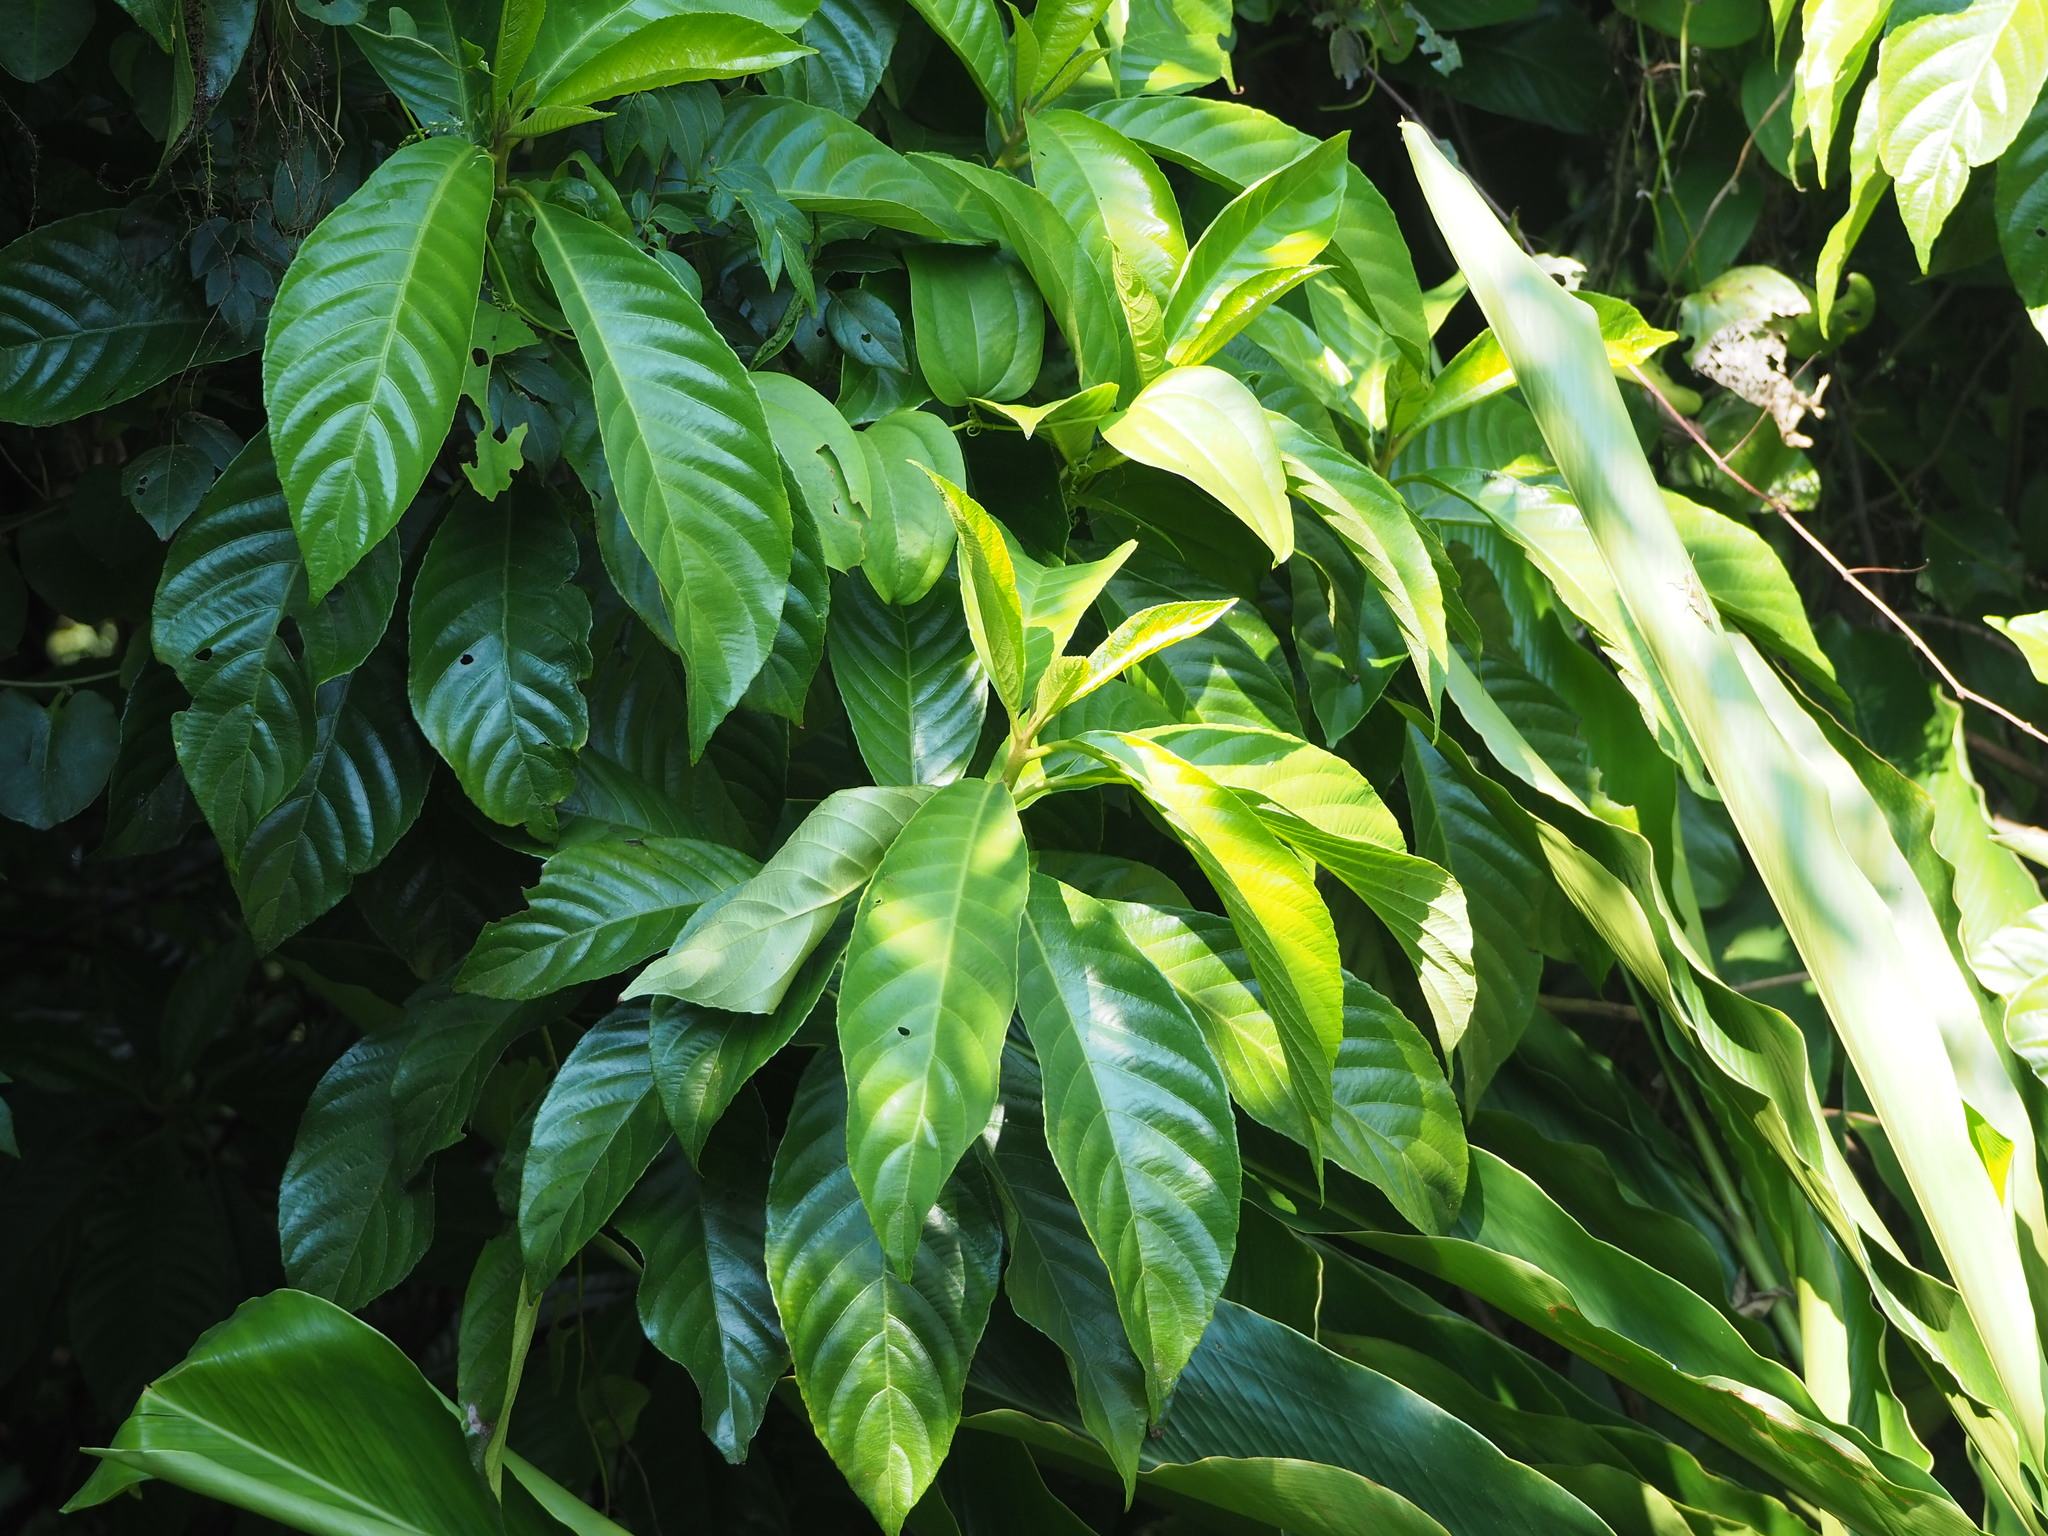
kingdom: Plantae
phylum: Tracheophyta
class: Magnoliopsida
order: Ericales
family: Actinidiaceae
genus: Saurauia
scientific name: Saurauia tristyla
